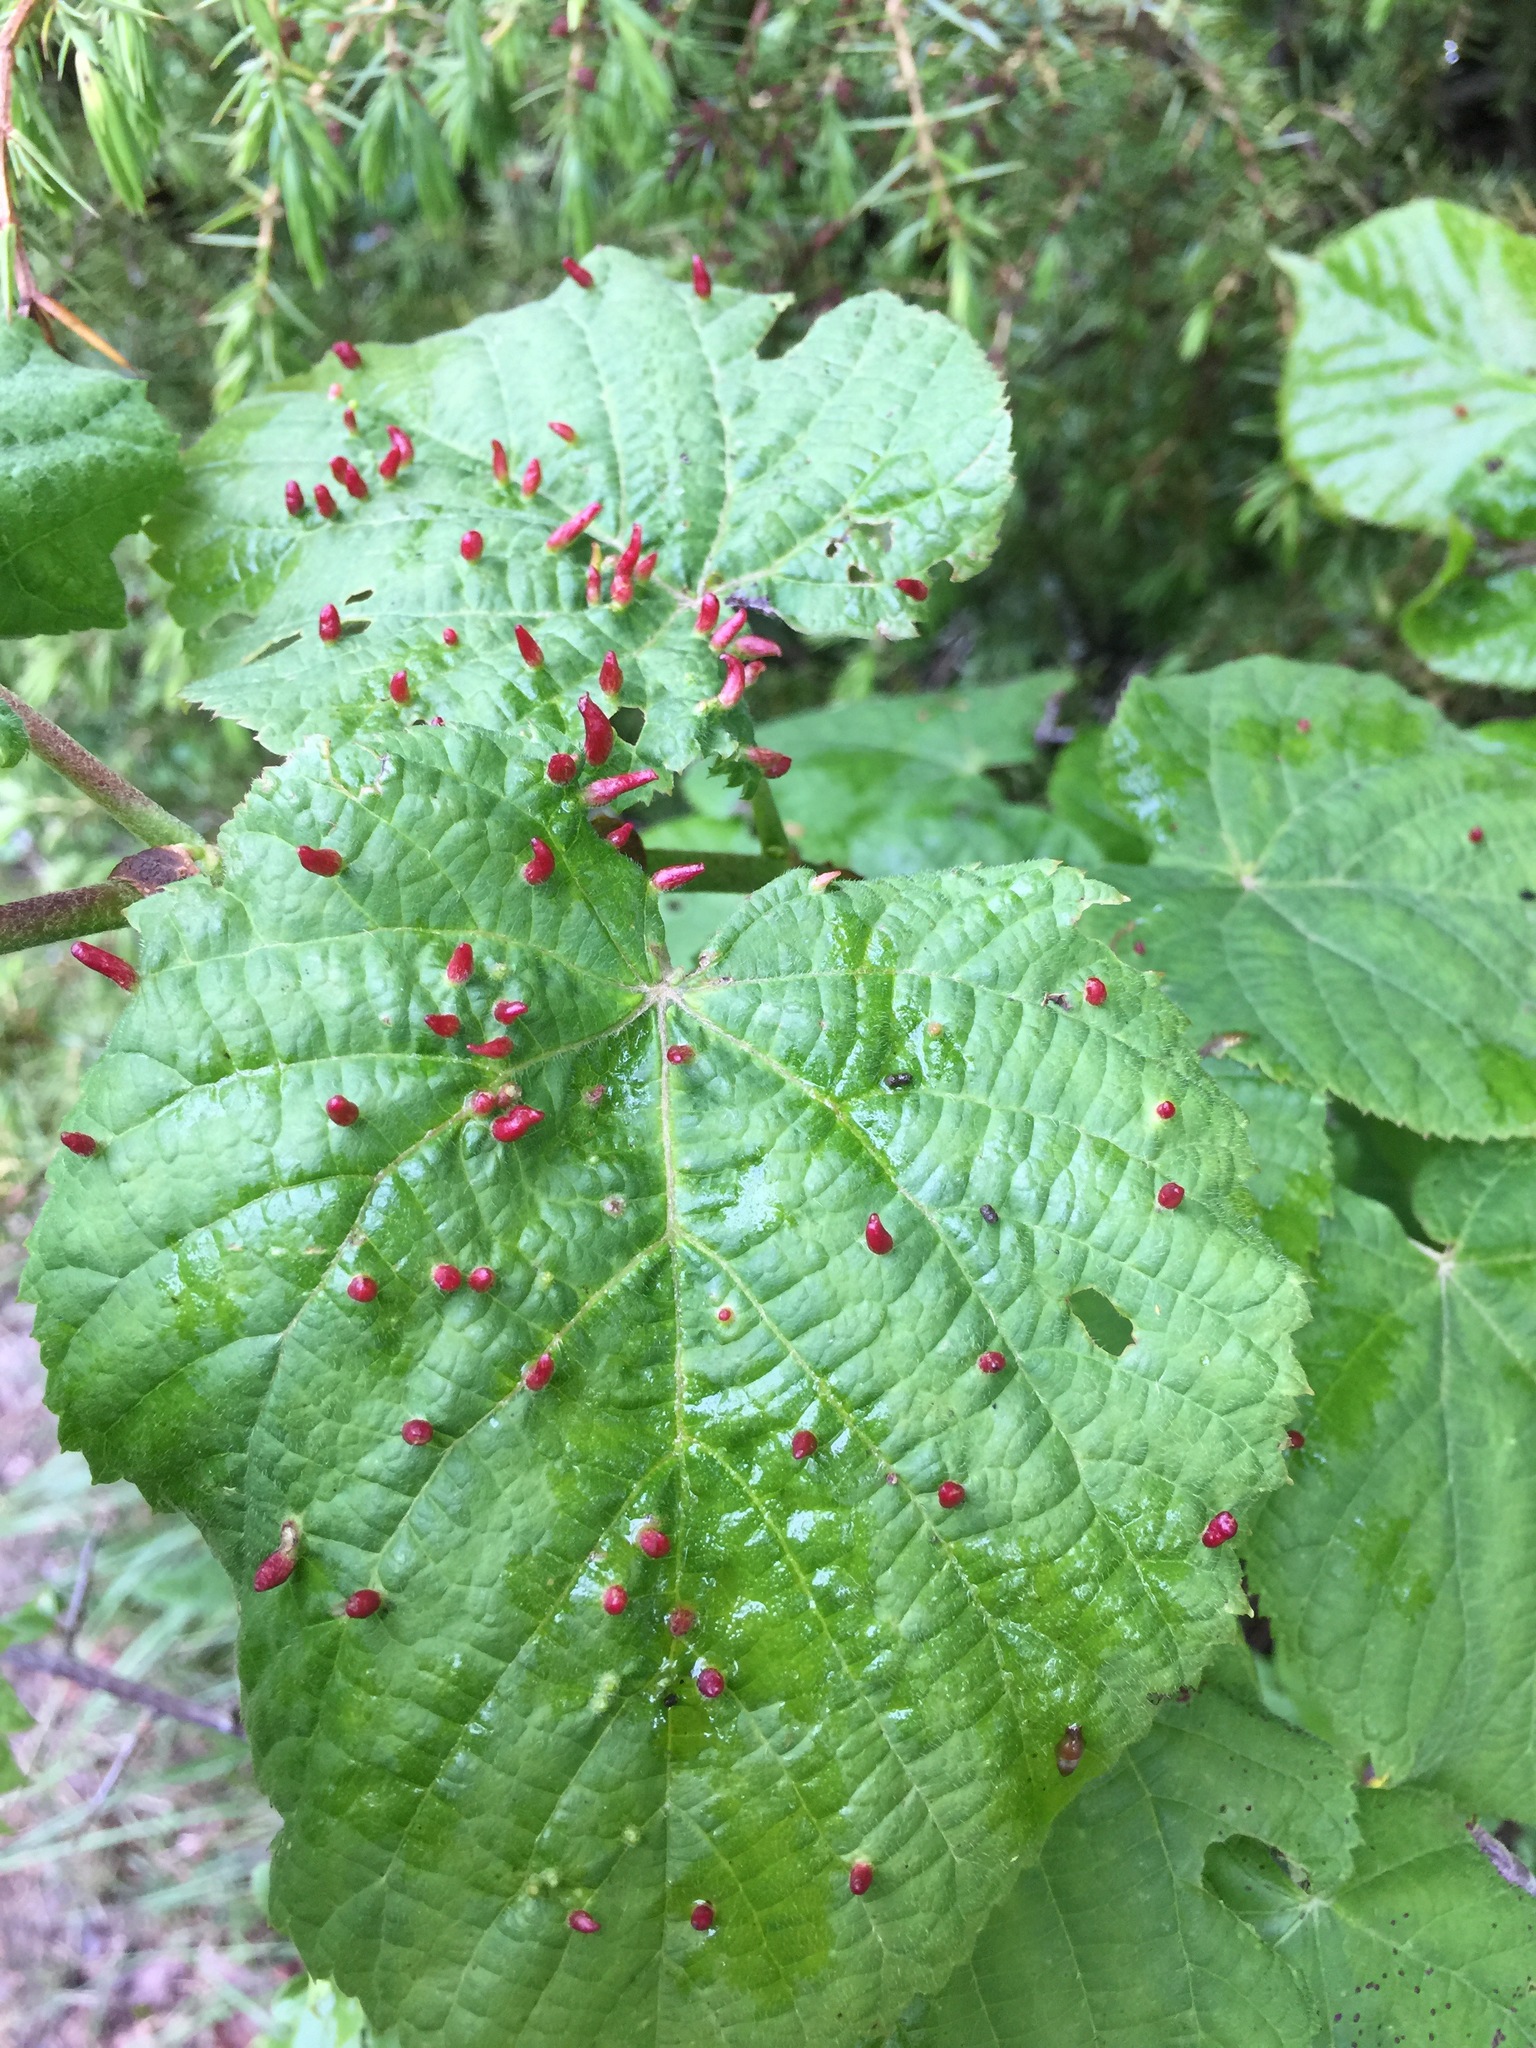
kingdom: Animalia
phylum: Arthropoda
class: Arachnida
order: Trombidiformes
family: Eriophyidae
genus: Eriophyes
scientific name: Eriophyes tiliae
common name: Red nail gall mite
